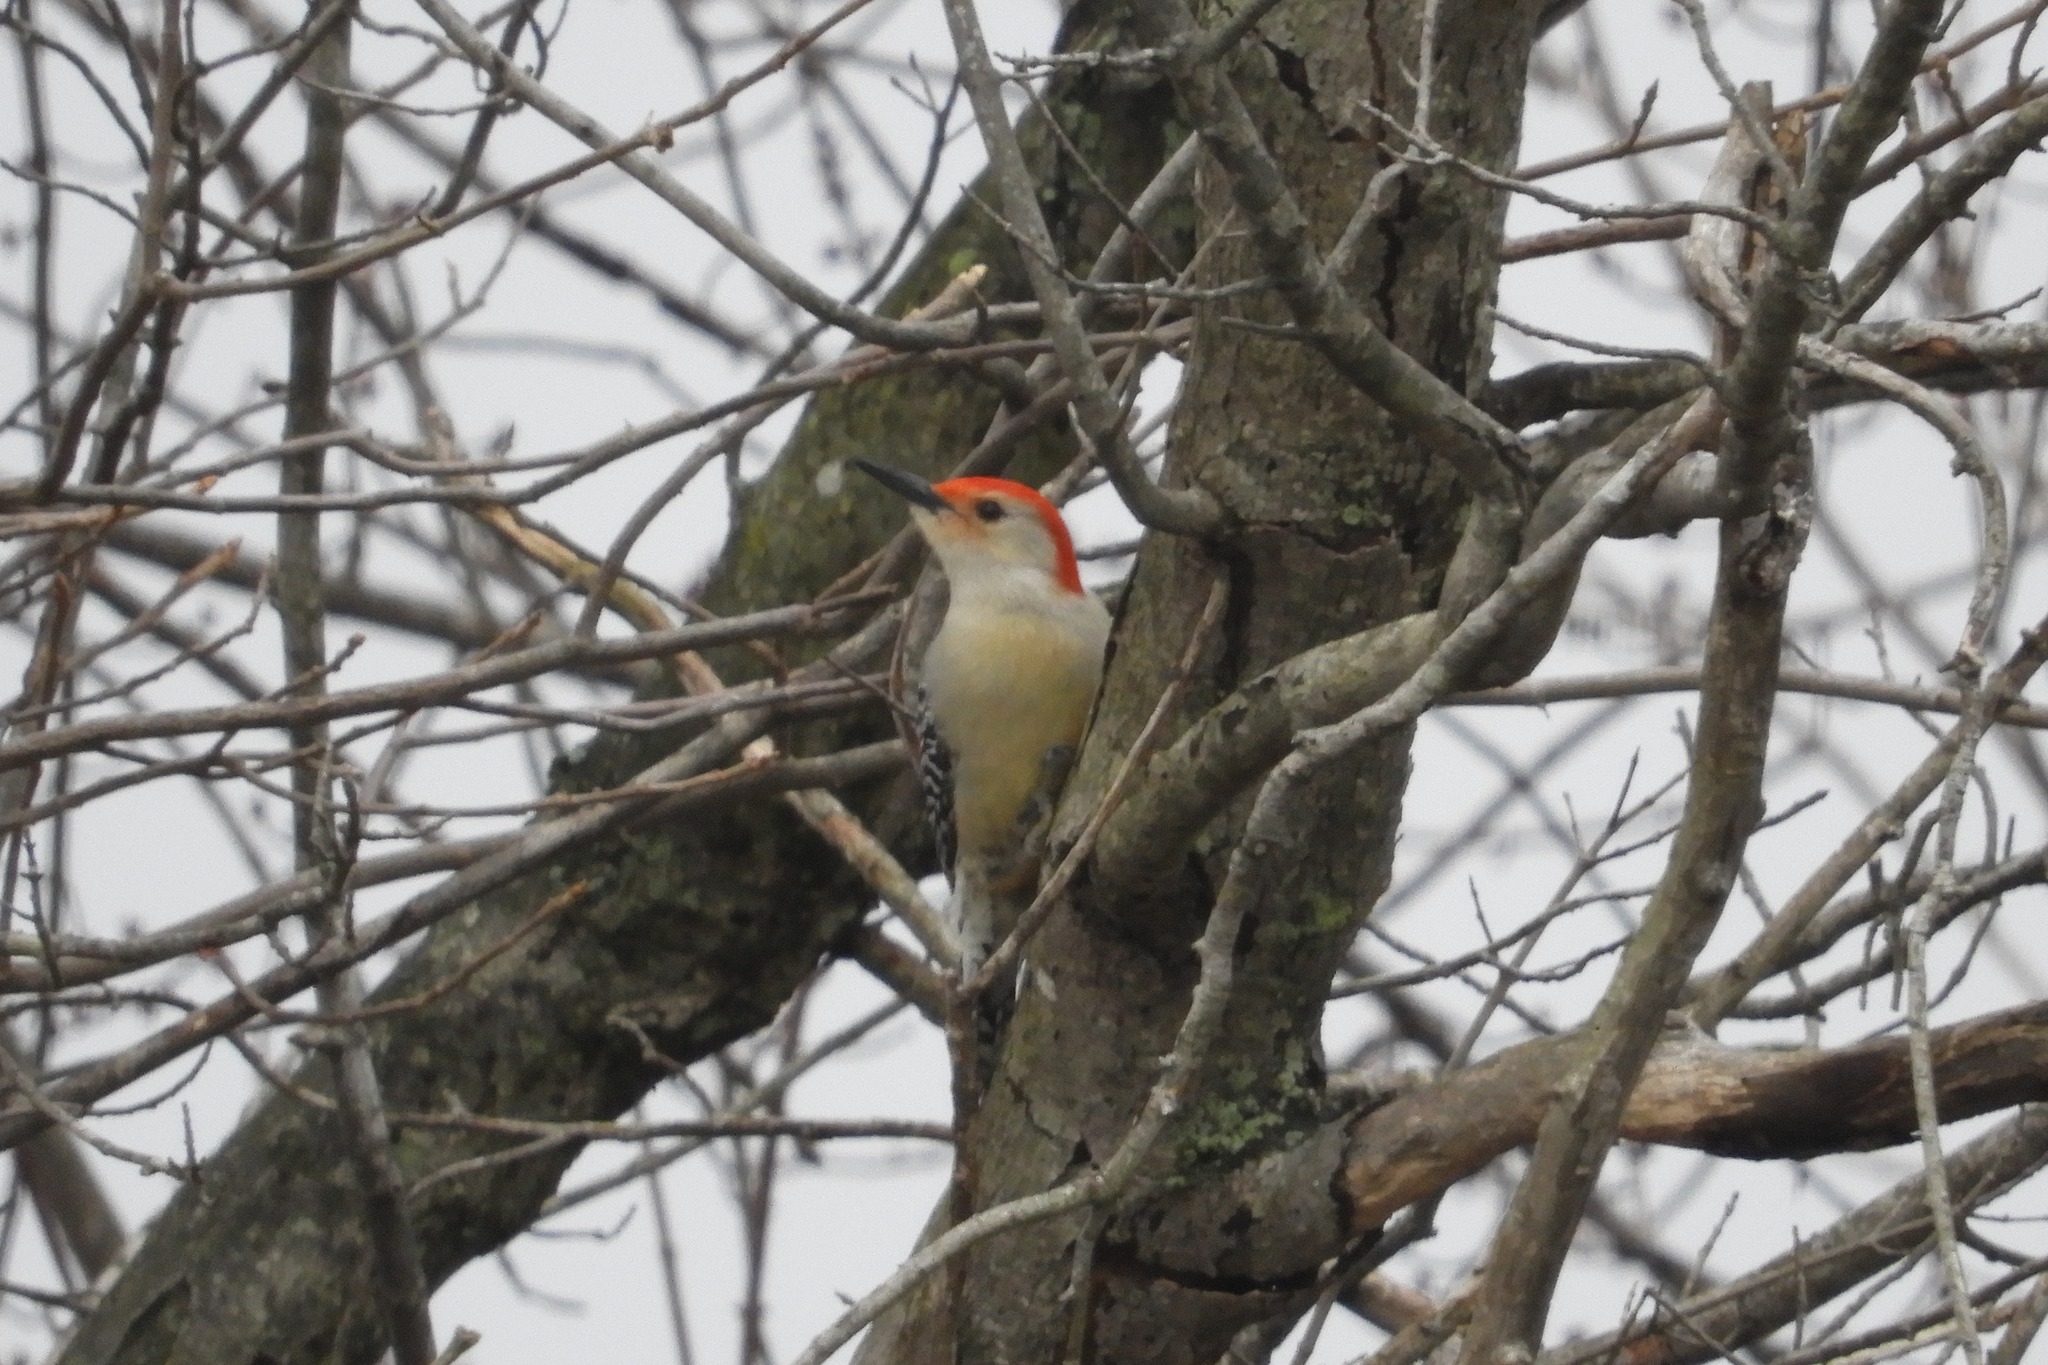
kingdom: Animalia
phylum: Chordata
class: Aves
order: Piciformes
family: Picidae
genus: Melanerpes
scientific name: Melanerpes carolinus
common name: Red-bellied woodpecker
